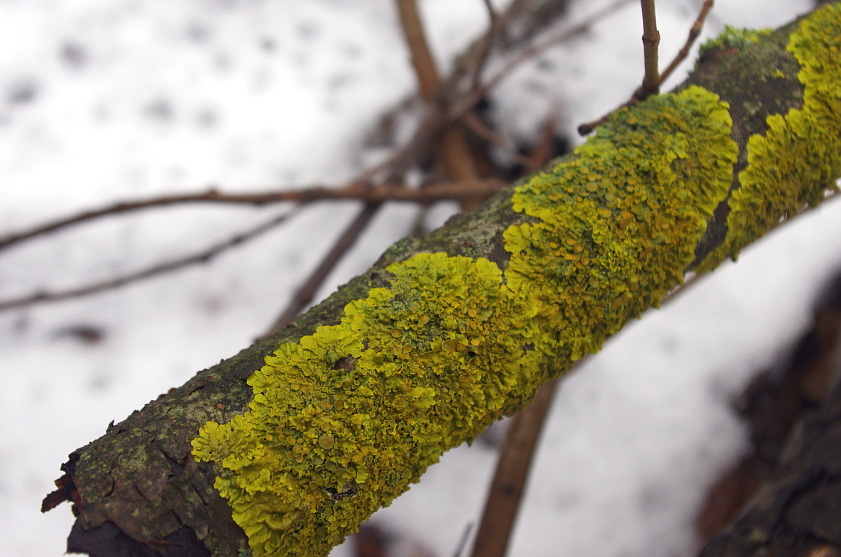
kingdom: Fungi
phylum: Ascomycota
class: Lecanoromycetes
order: Teloschistales
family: Teloschistaceae
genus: Xanthoria
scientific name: Xanthoria parietina
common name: Common orange lichen
